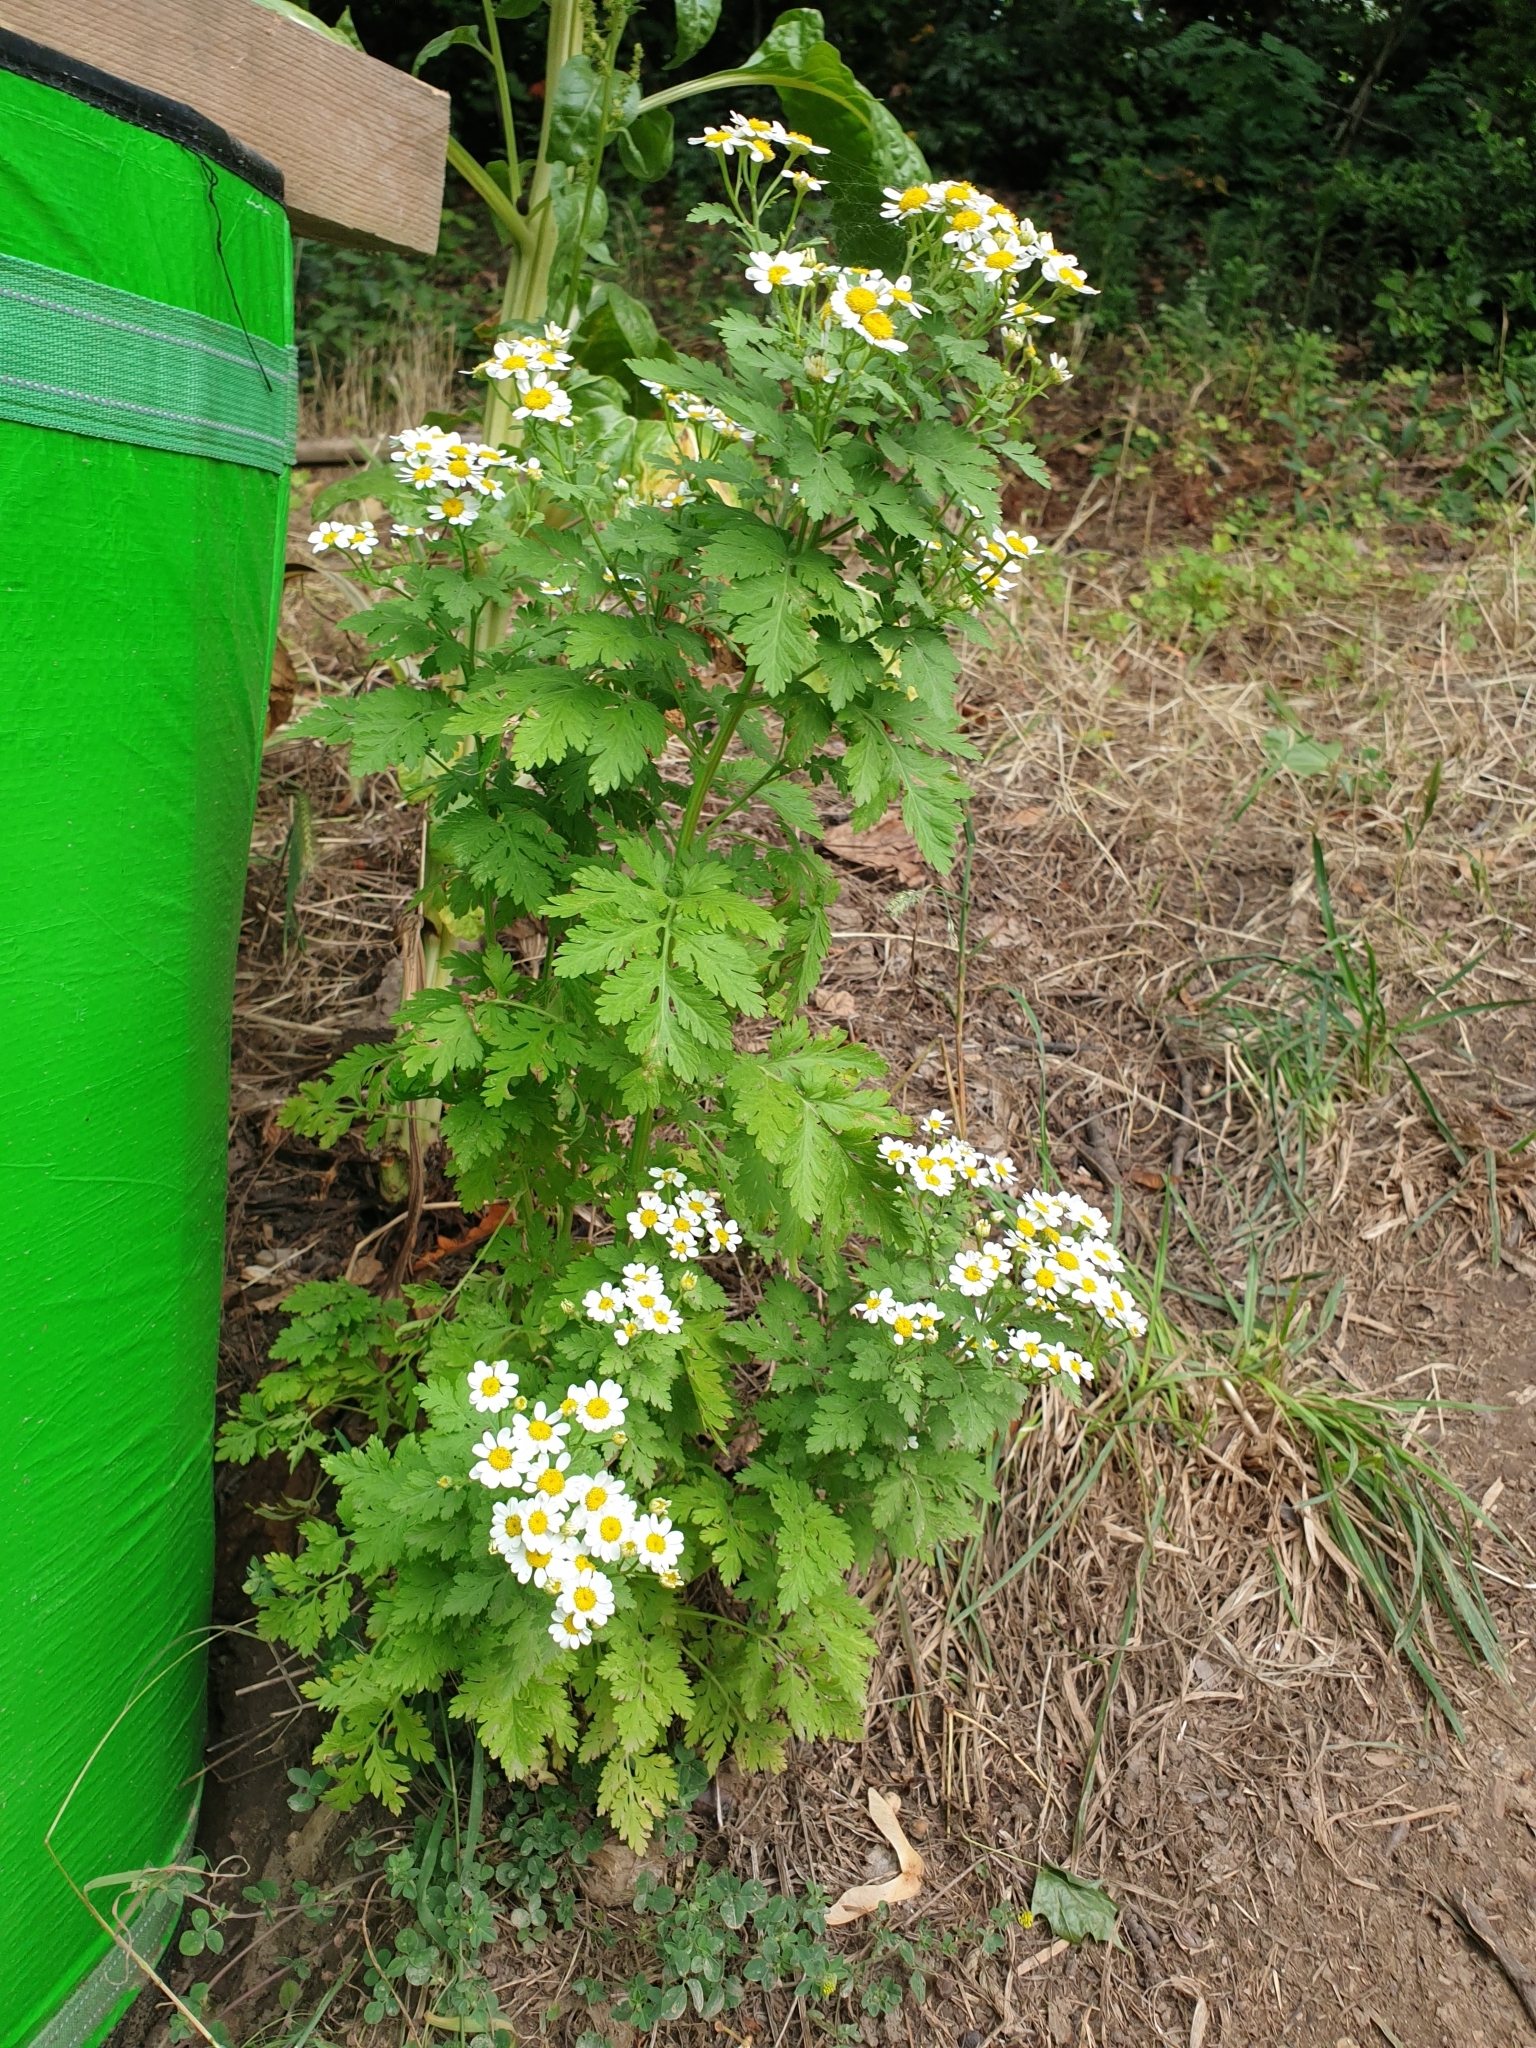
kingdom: Plantae
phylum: Tracheophyta
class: Magnoliopsida
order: Asterales
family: Asteraceae
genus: Tanacetum
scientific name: Tanacetum parthenium
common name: Feverfew
